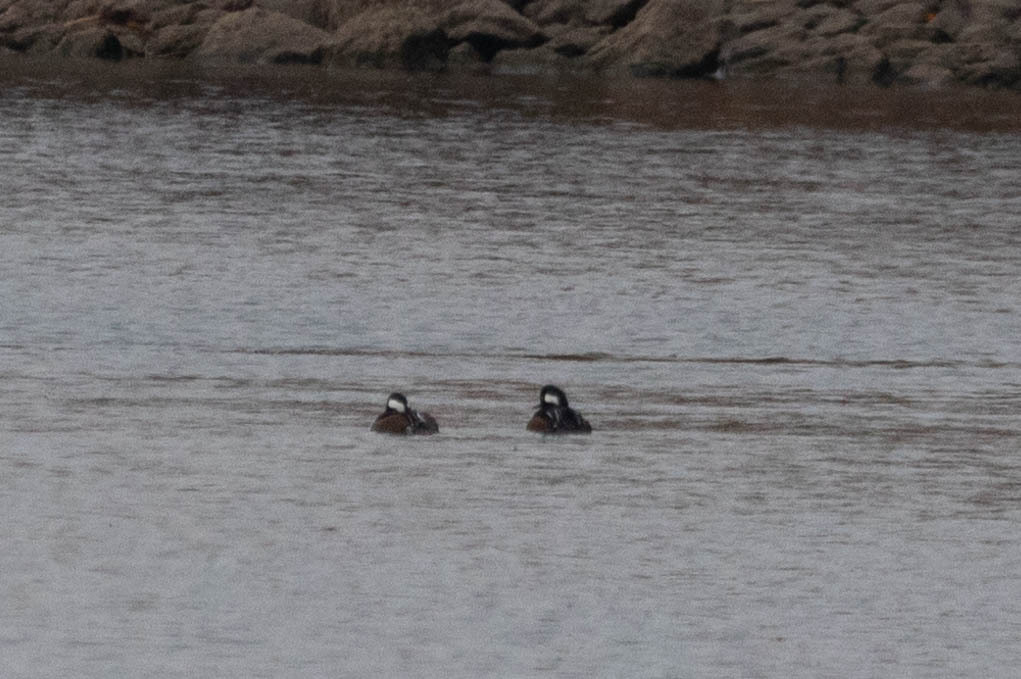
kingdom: Animalia
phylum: Chordata
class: Aves
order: Anseriformes
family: Anatidae
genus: Lophodytes
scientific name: Lophodytes cucullatus
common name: Hooded merganser
